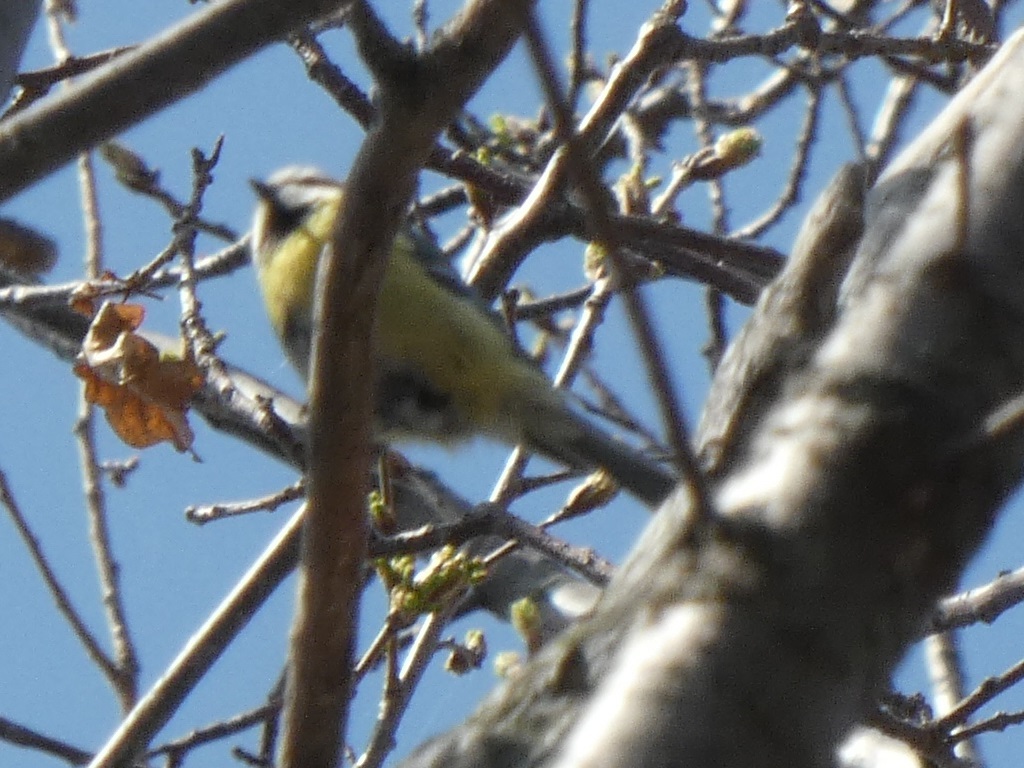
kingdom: Animalia
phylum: Chordata
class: Aves
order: Passeriformes
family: Paridae
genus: Cyanistes
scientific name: Cyanistes caeruleus
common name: Eurasian blue tit
